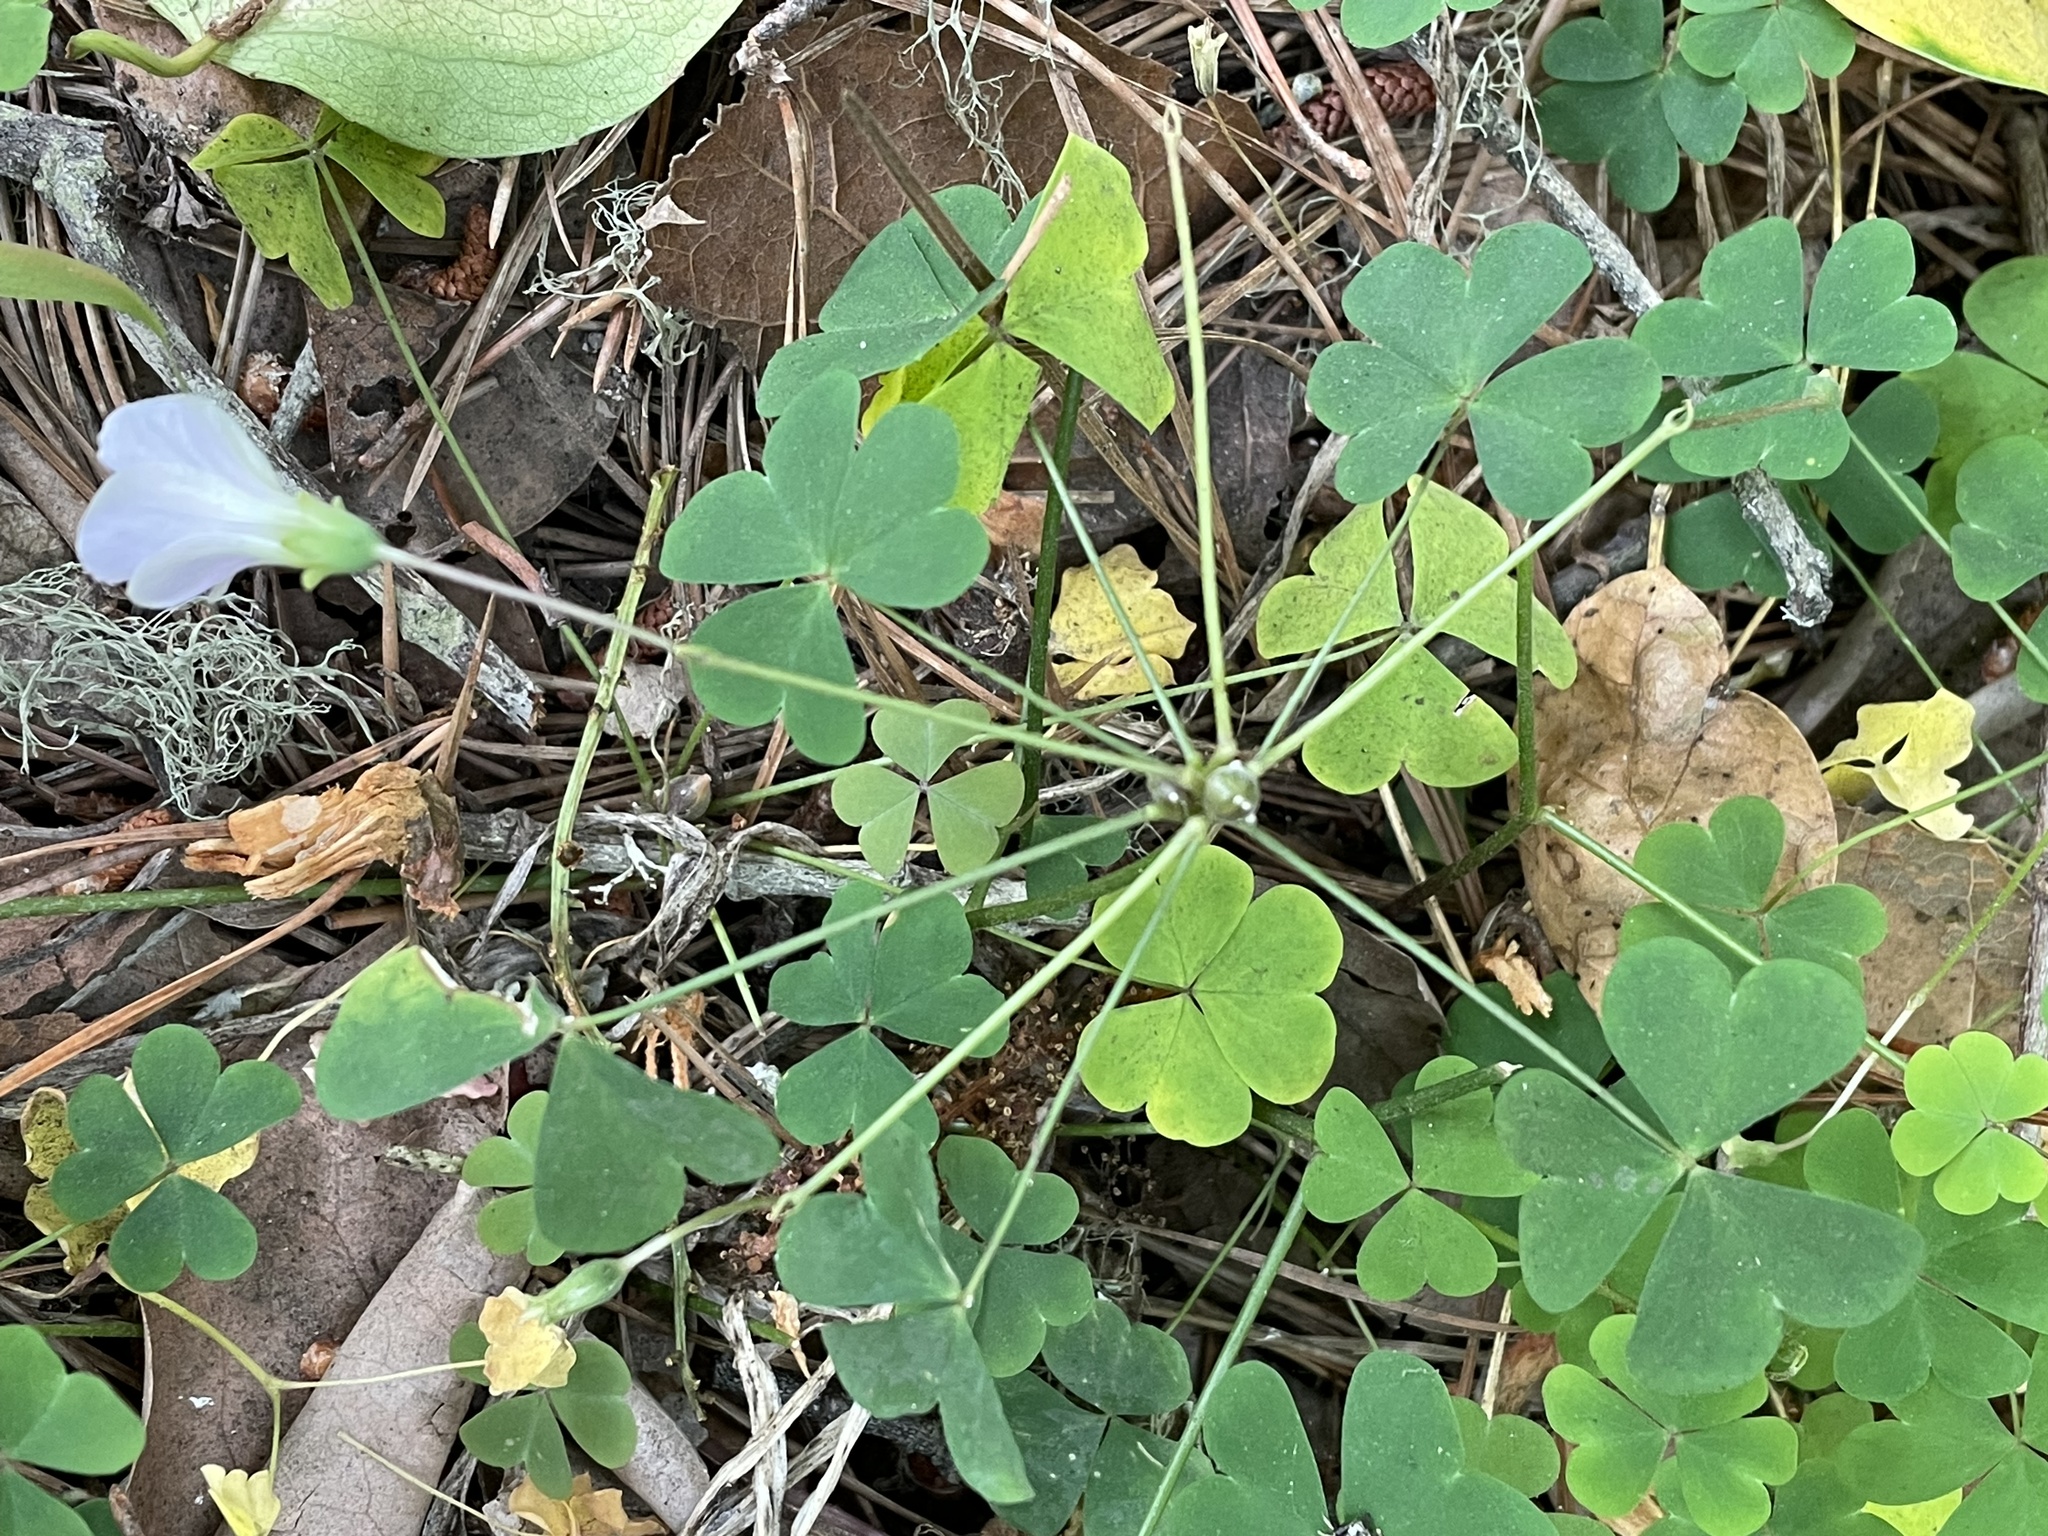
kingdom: Plantae
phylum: Tracheophyta
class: Magnoliopsida
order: Oxalidales
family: Oxalidaceae
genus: Oxalis
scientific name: Oxalis incarnata
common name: Pale pink-sorrel
